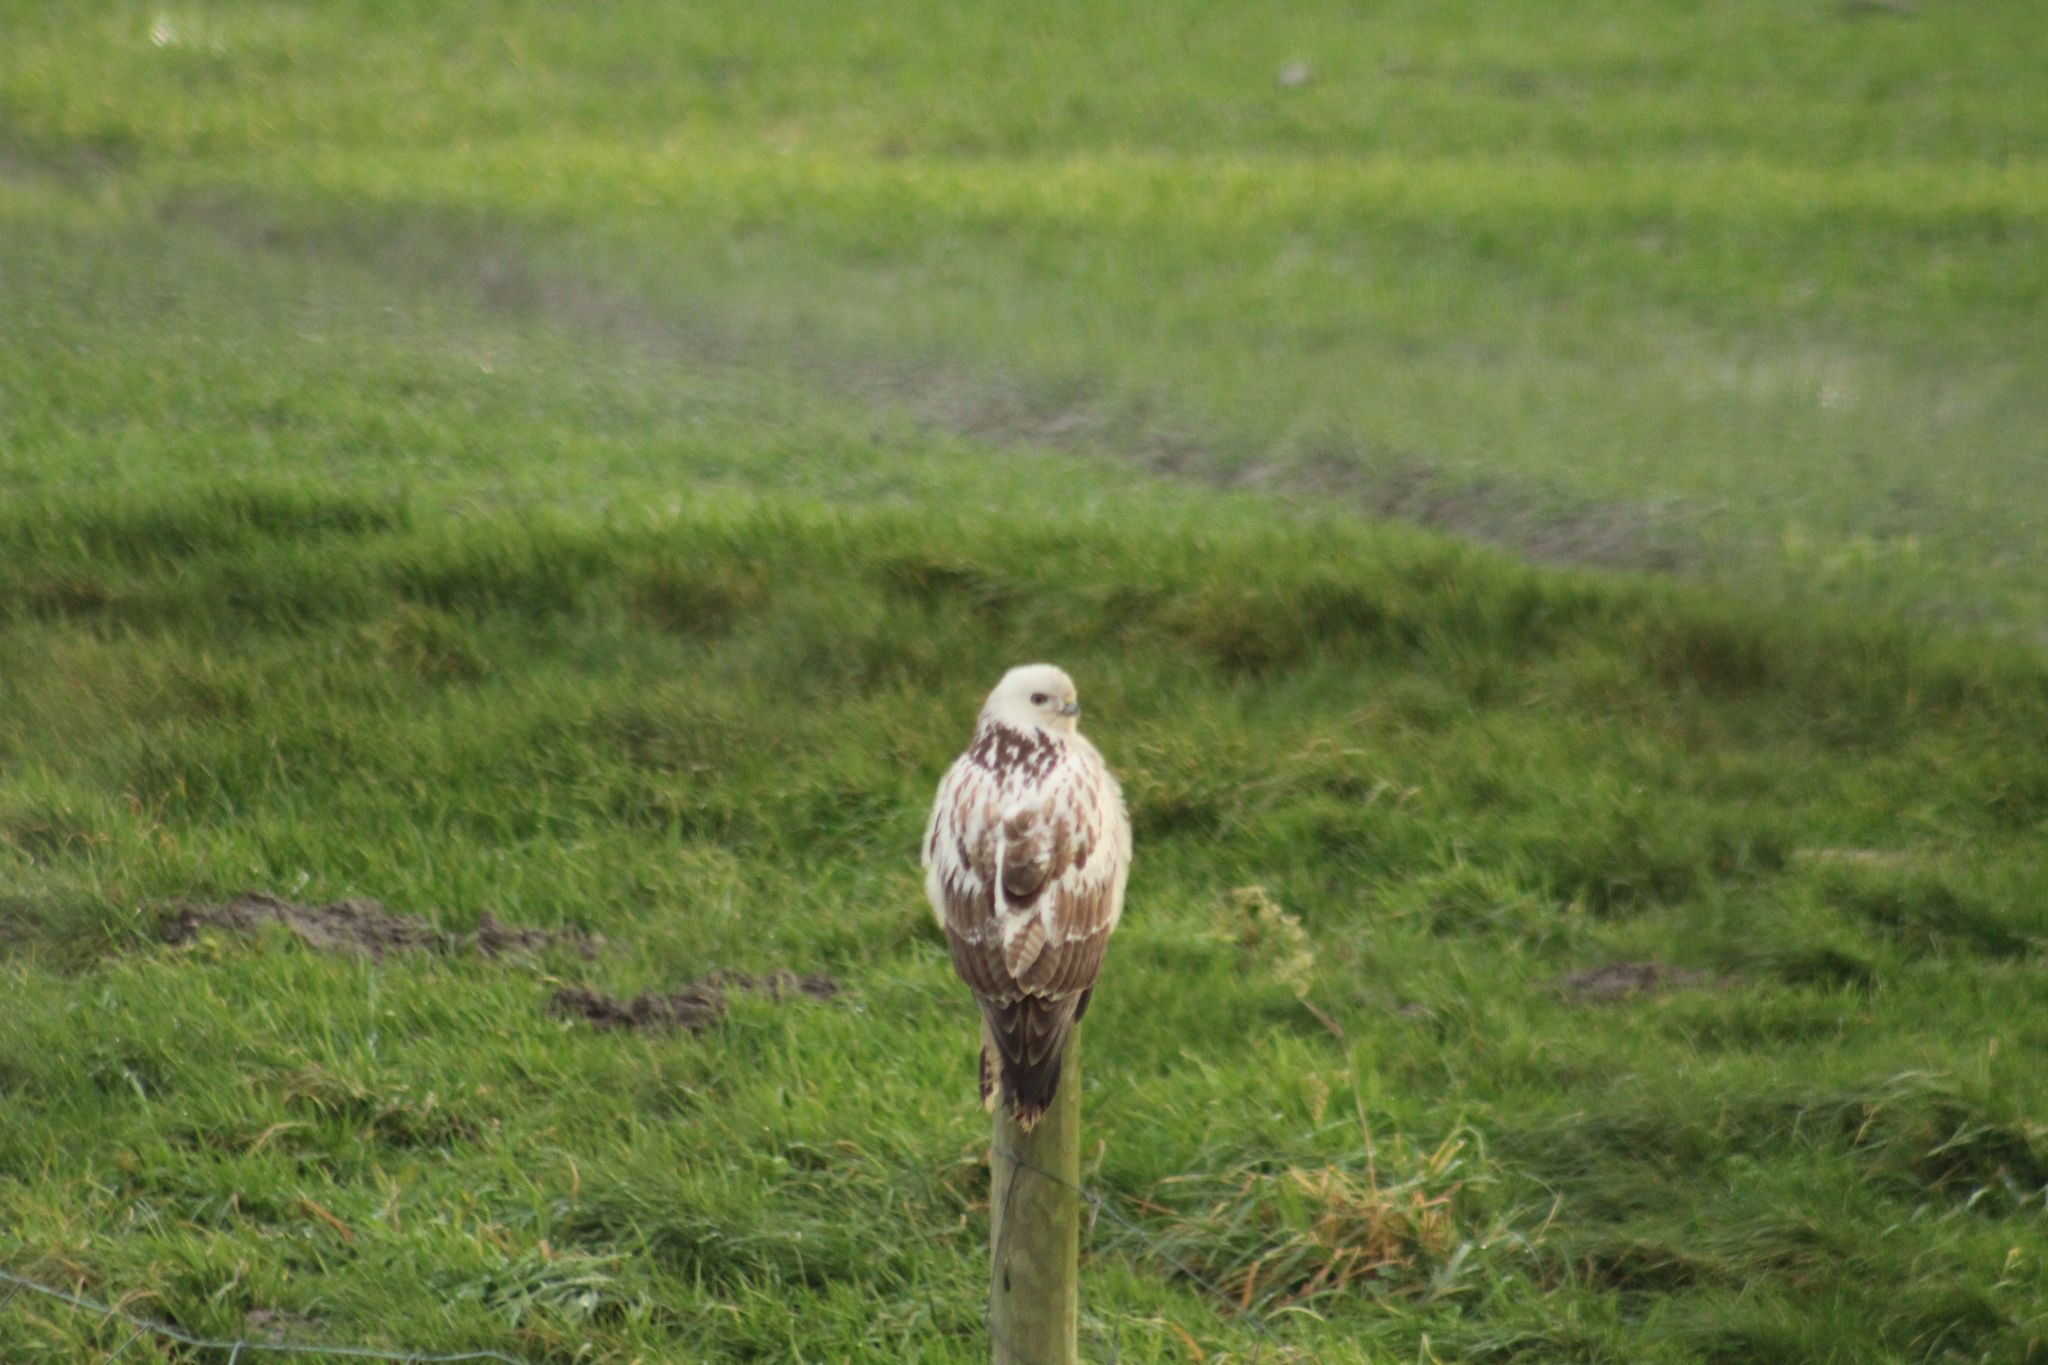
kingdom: Animalia
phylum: Chordata
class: Aves
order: Accipitriformes
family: Accipitridae
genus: Buteo
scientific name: Buteo buteo
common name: Common buzzard
